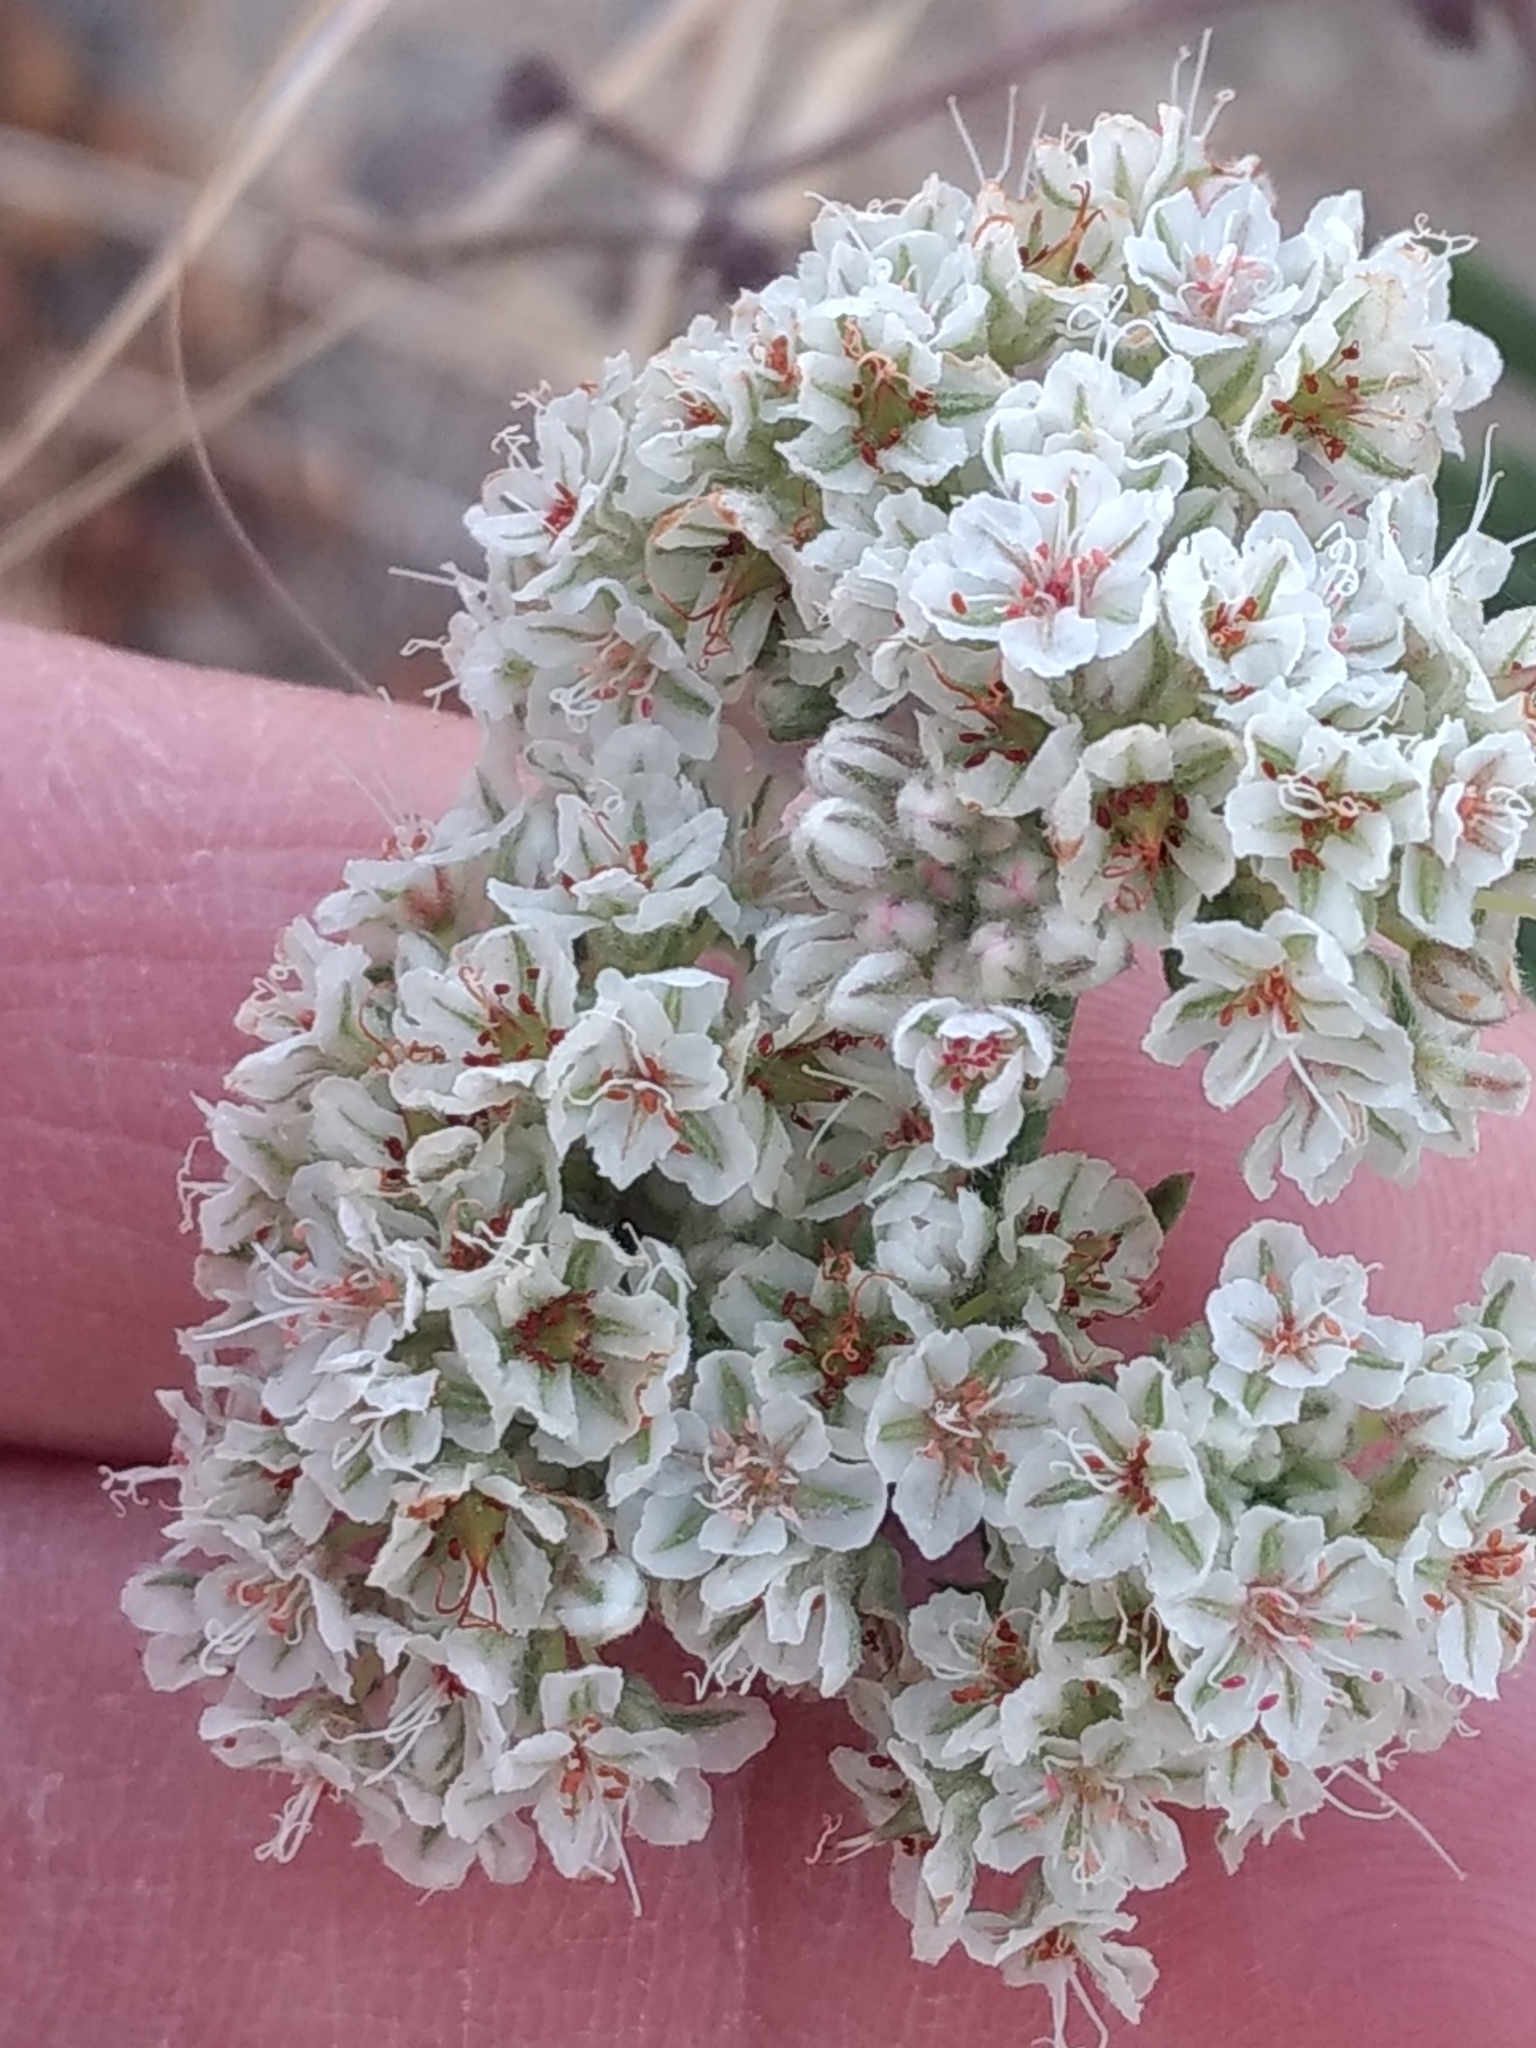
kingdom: Plantae
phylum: Tracheophyta
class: Magnoliopsida
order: Caryophyllales
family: Polygonaceae
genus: Eriogonum
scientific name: Eriogonum fasciculatum
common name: California wild buckwheat
